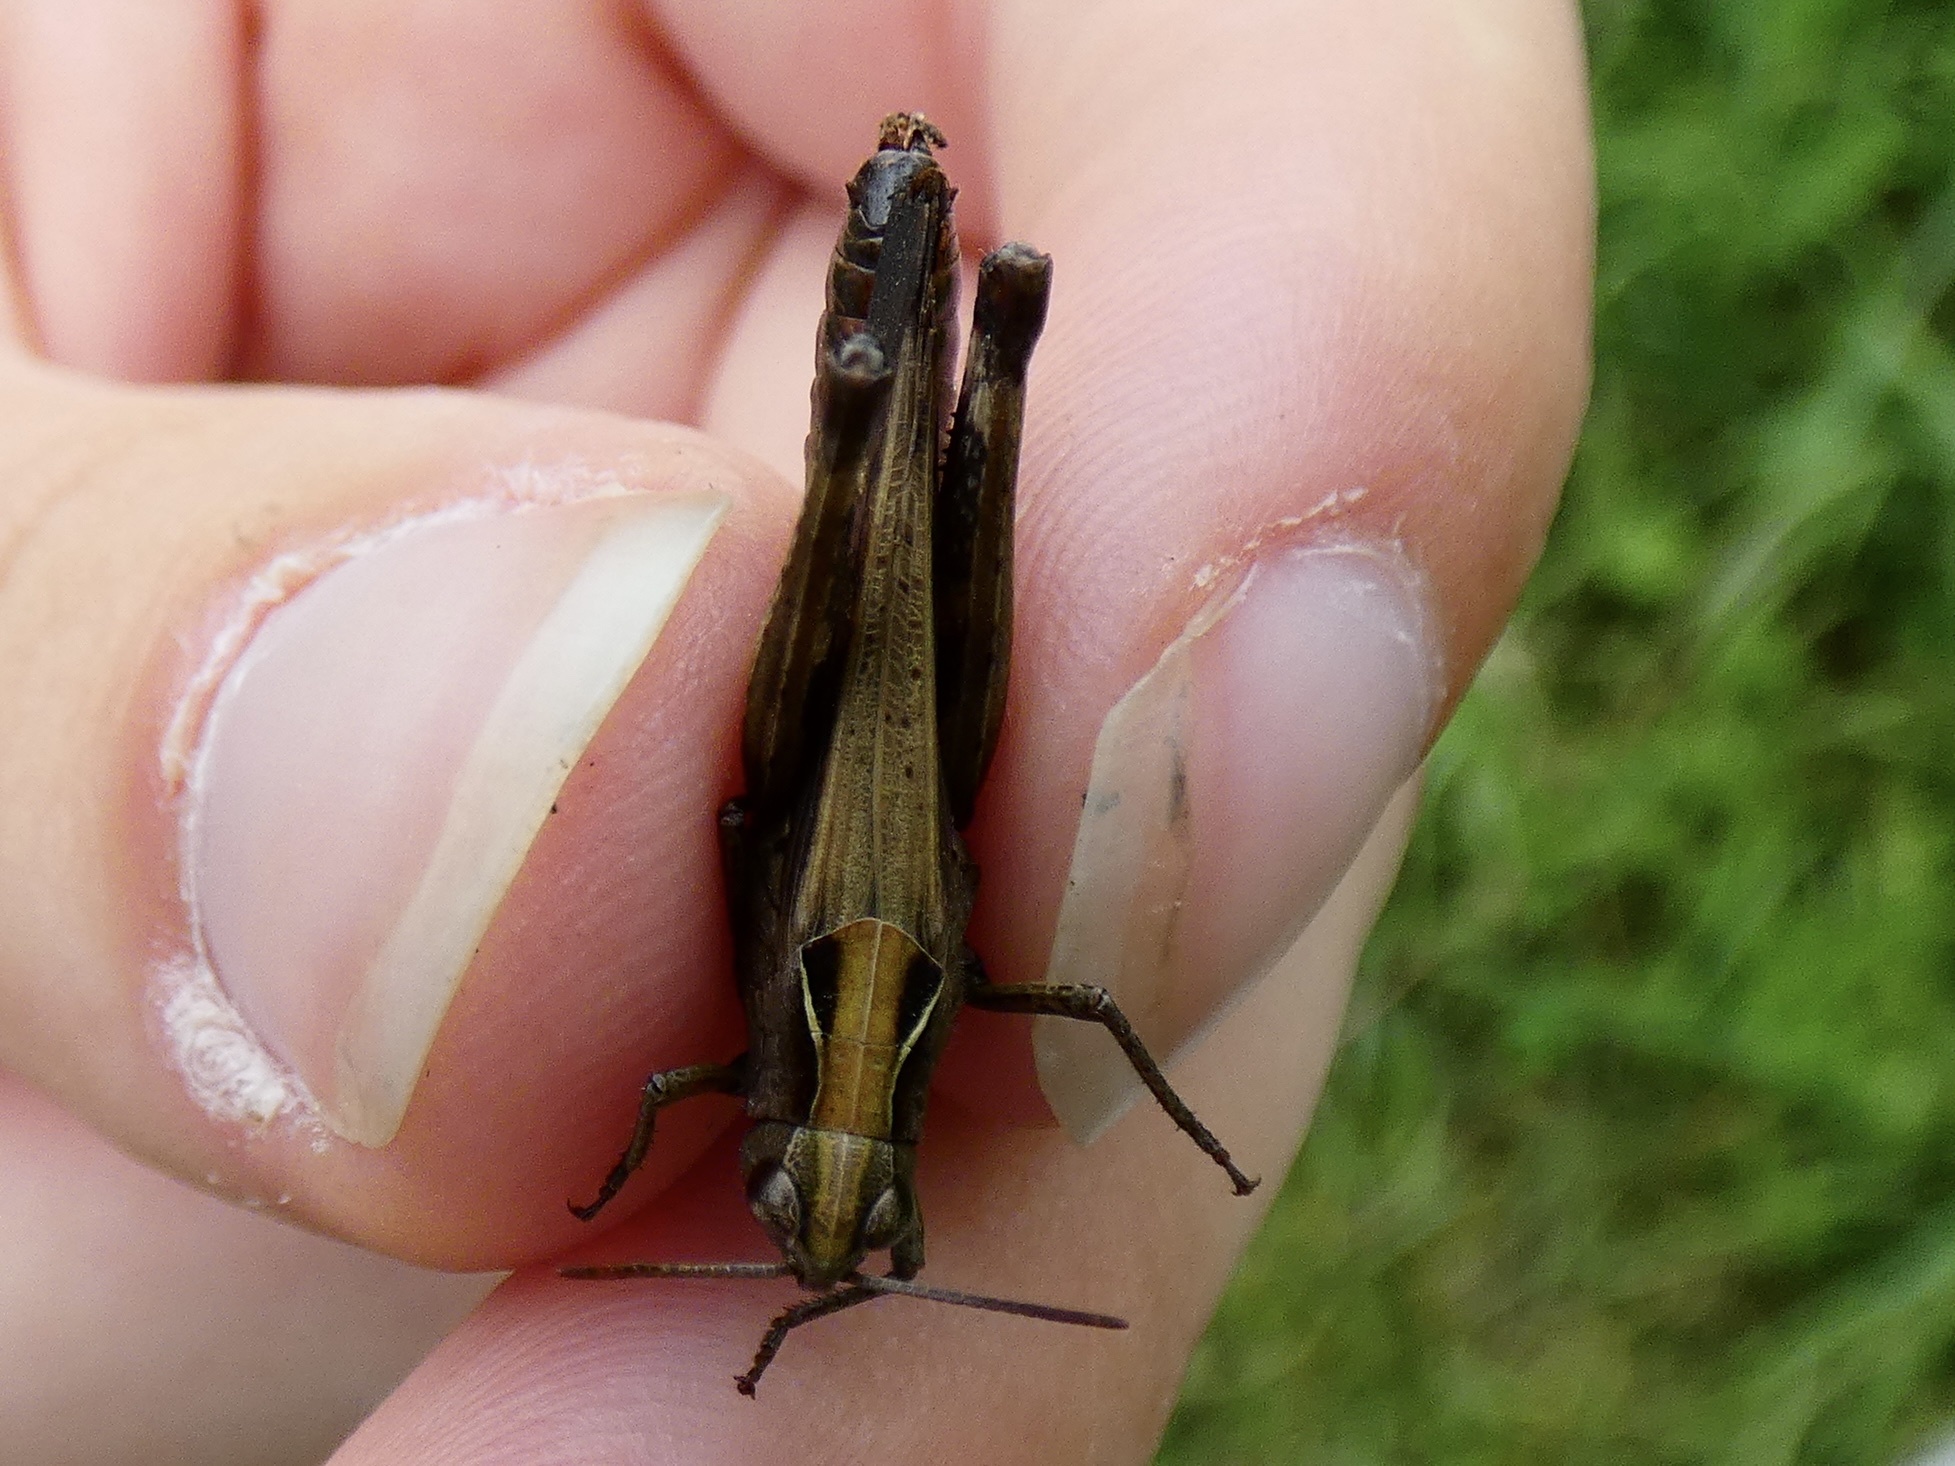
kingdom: Animalia
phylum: Arthropoda
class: Insecta
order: Orthoptera
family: Acrididae
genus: Omocestus
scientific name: Omocestus rufipes
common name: Woodland grasshopper
